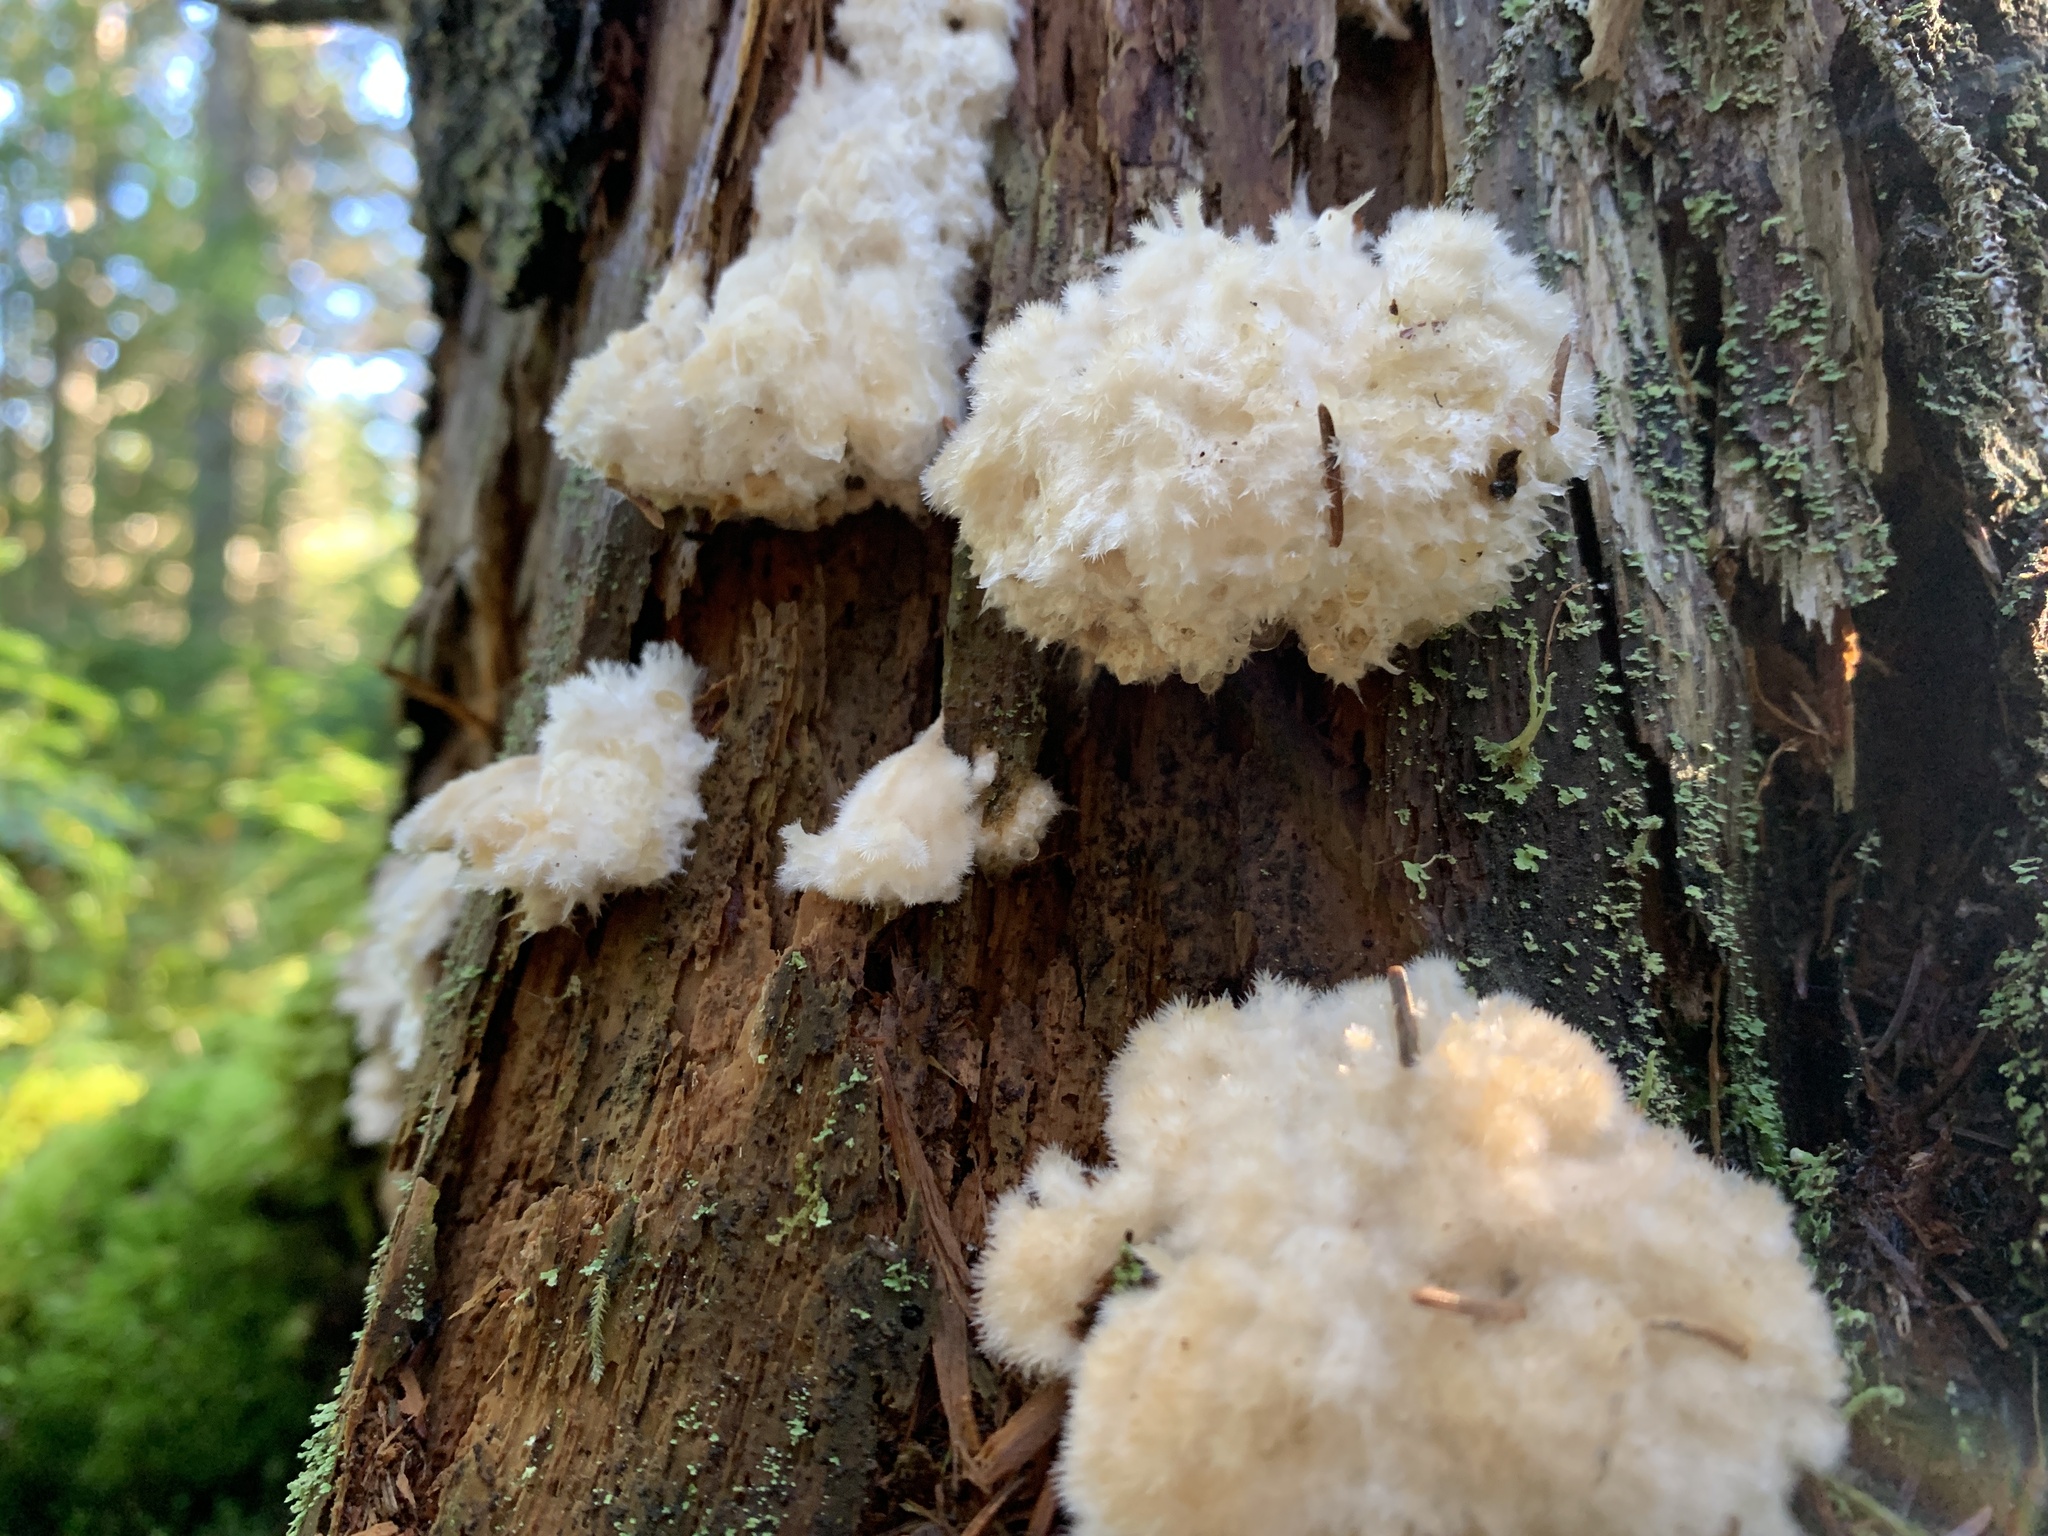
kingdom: Fungi
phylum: Basidiomycota
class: Agaricomycetes
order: Polyporales
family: Dacryobolaceae
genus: Postia
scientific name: Postia ptychogaster
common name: Powderpuff bracket
